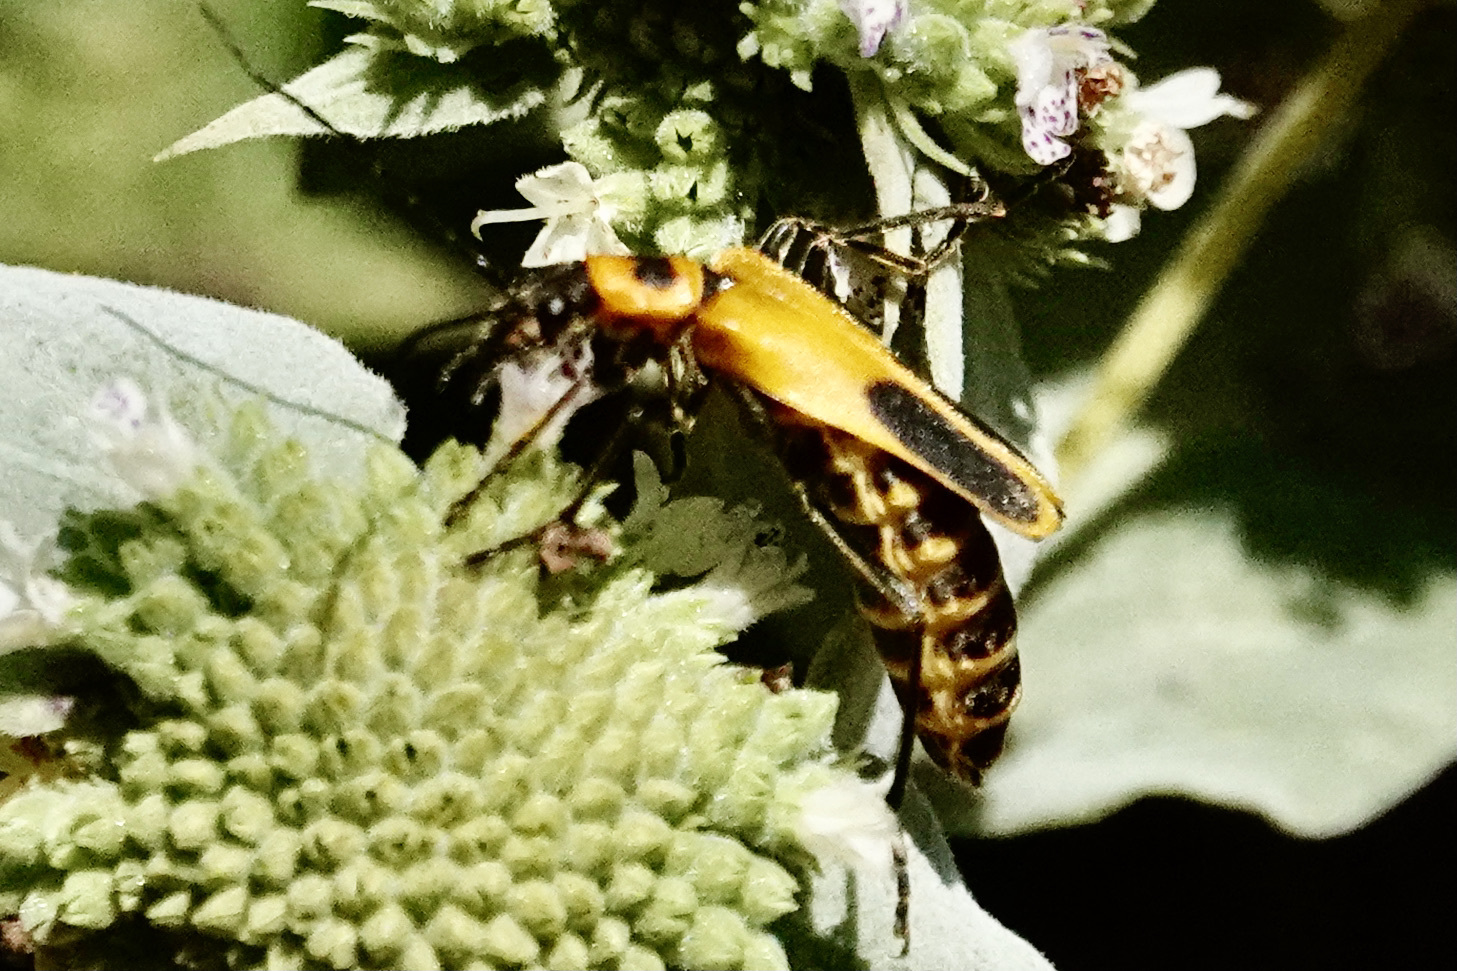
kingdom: Animalia
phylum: Arthropoda
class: Insecta
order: Coleoptera
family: Cantharidae
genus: Chauliognathus
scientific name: Chauliognathus pensylvanicus
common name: Goldenrod soldier beetle
